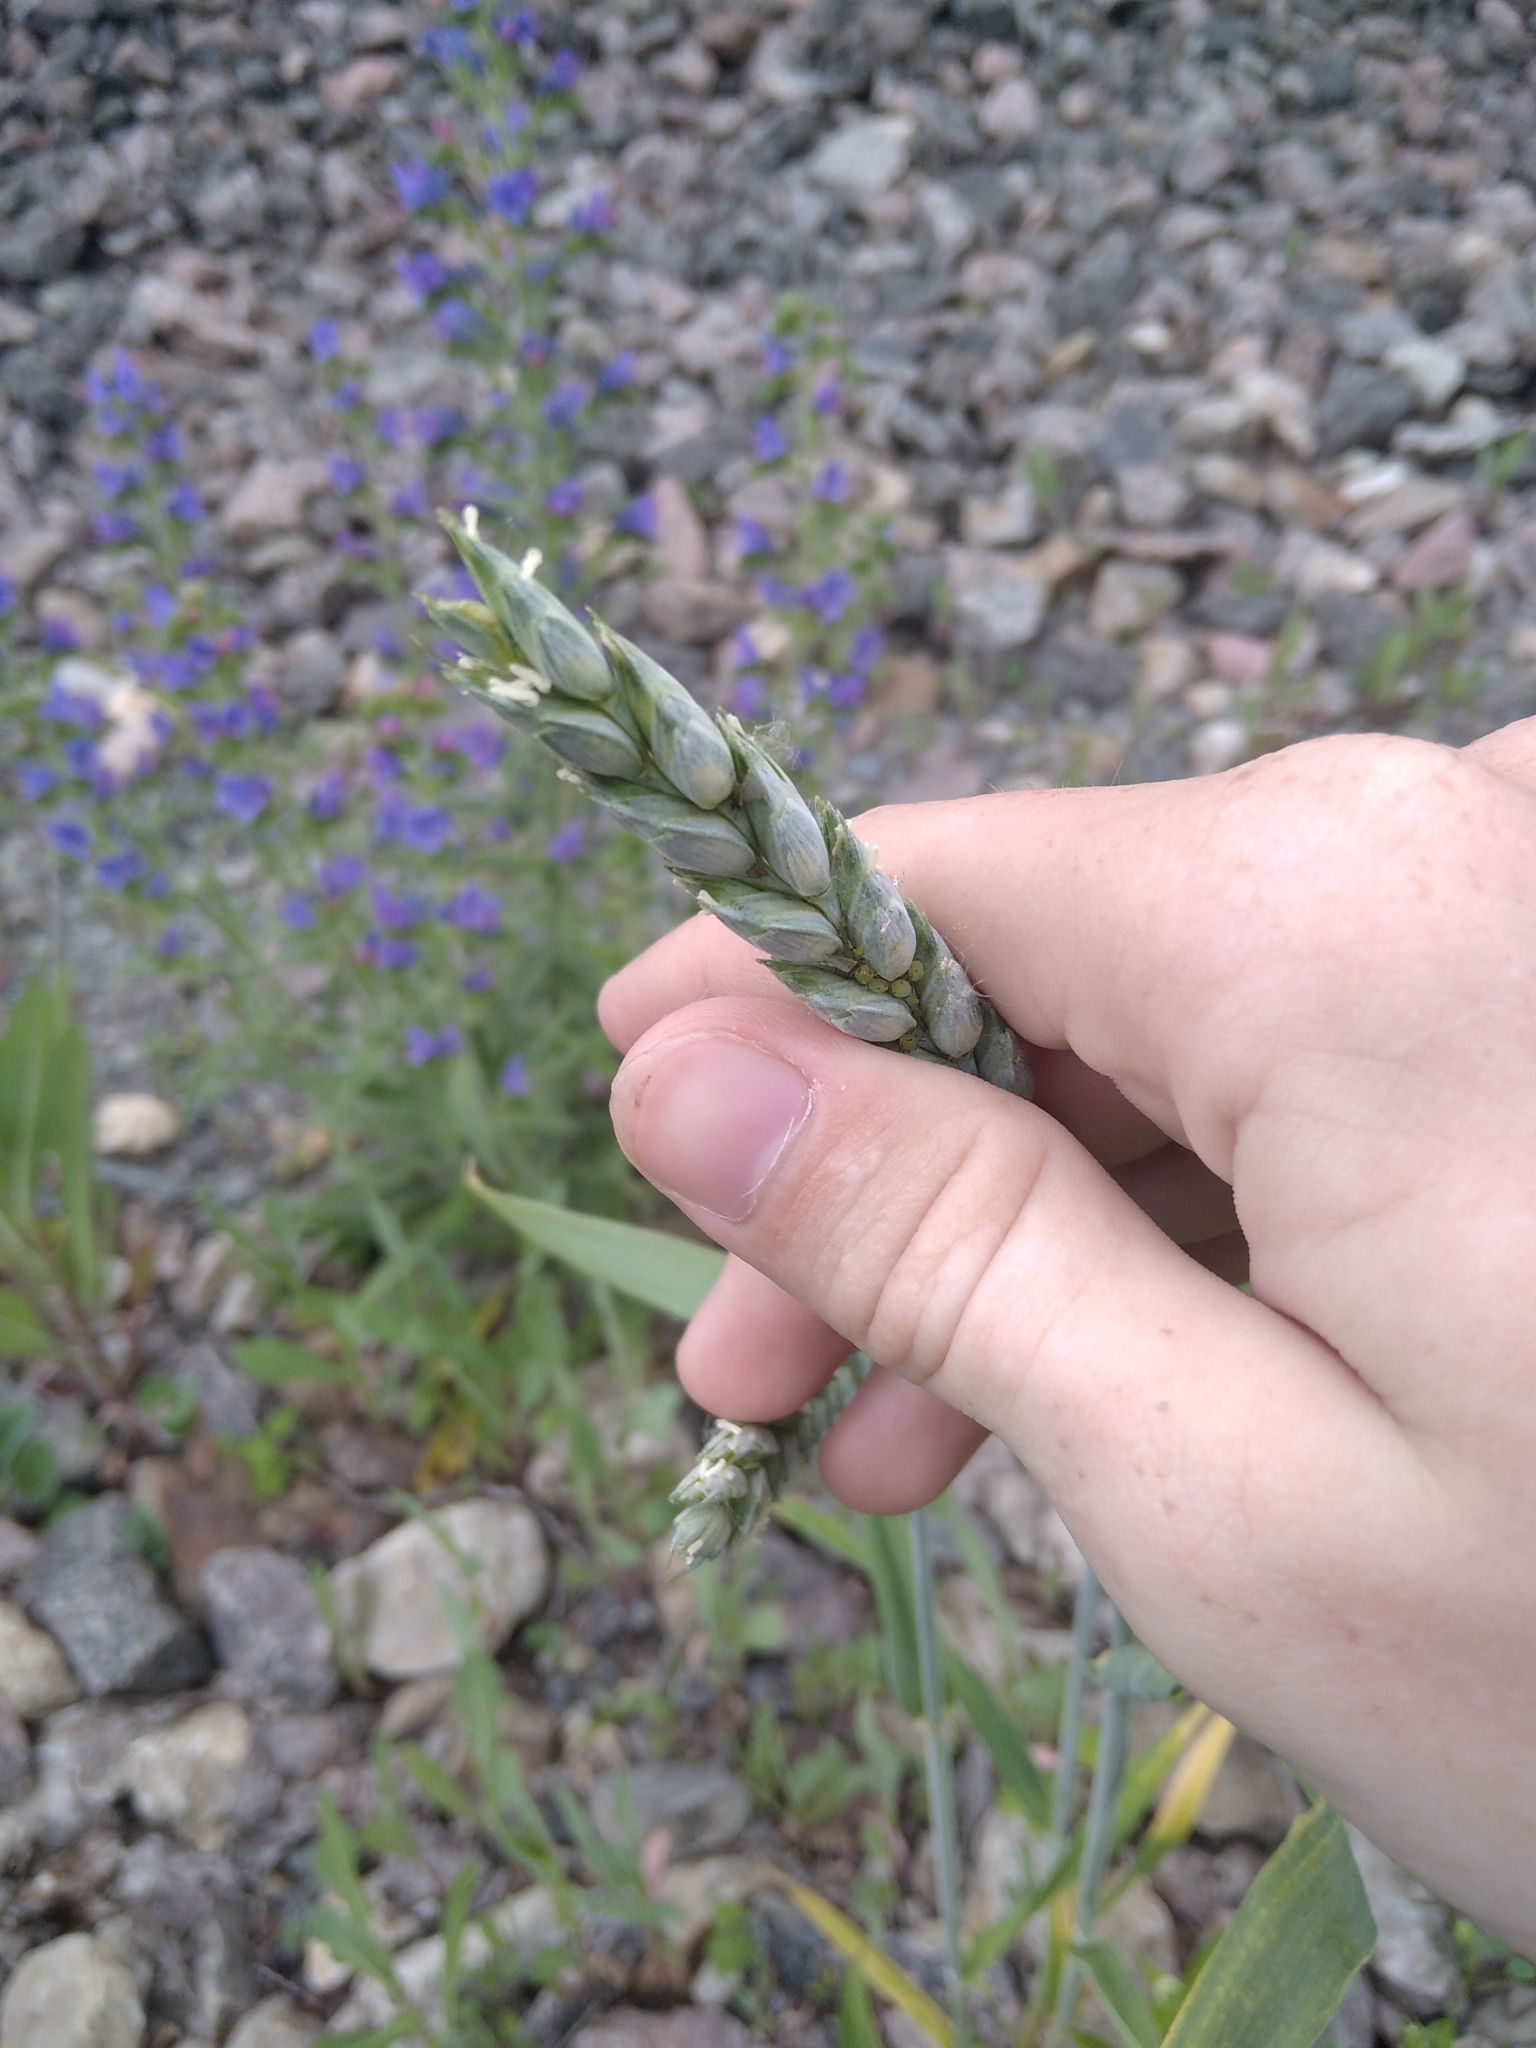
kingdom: Plantae
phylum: Tracheophyta
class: Liliopsida
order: Poales
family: Poaceae
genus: Triticum
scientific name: Triticum aestivum
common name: Common wheat
